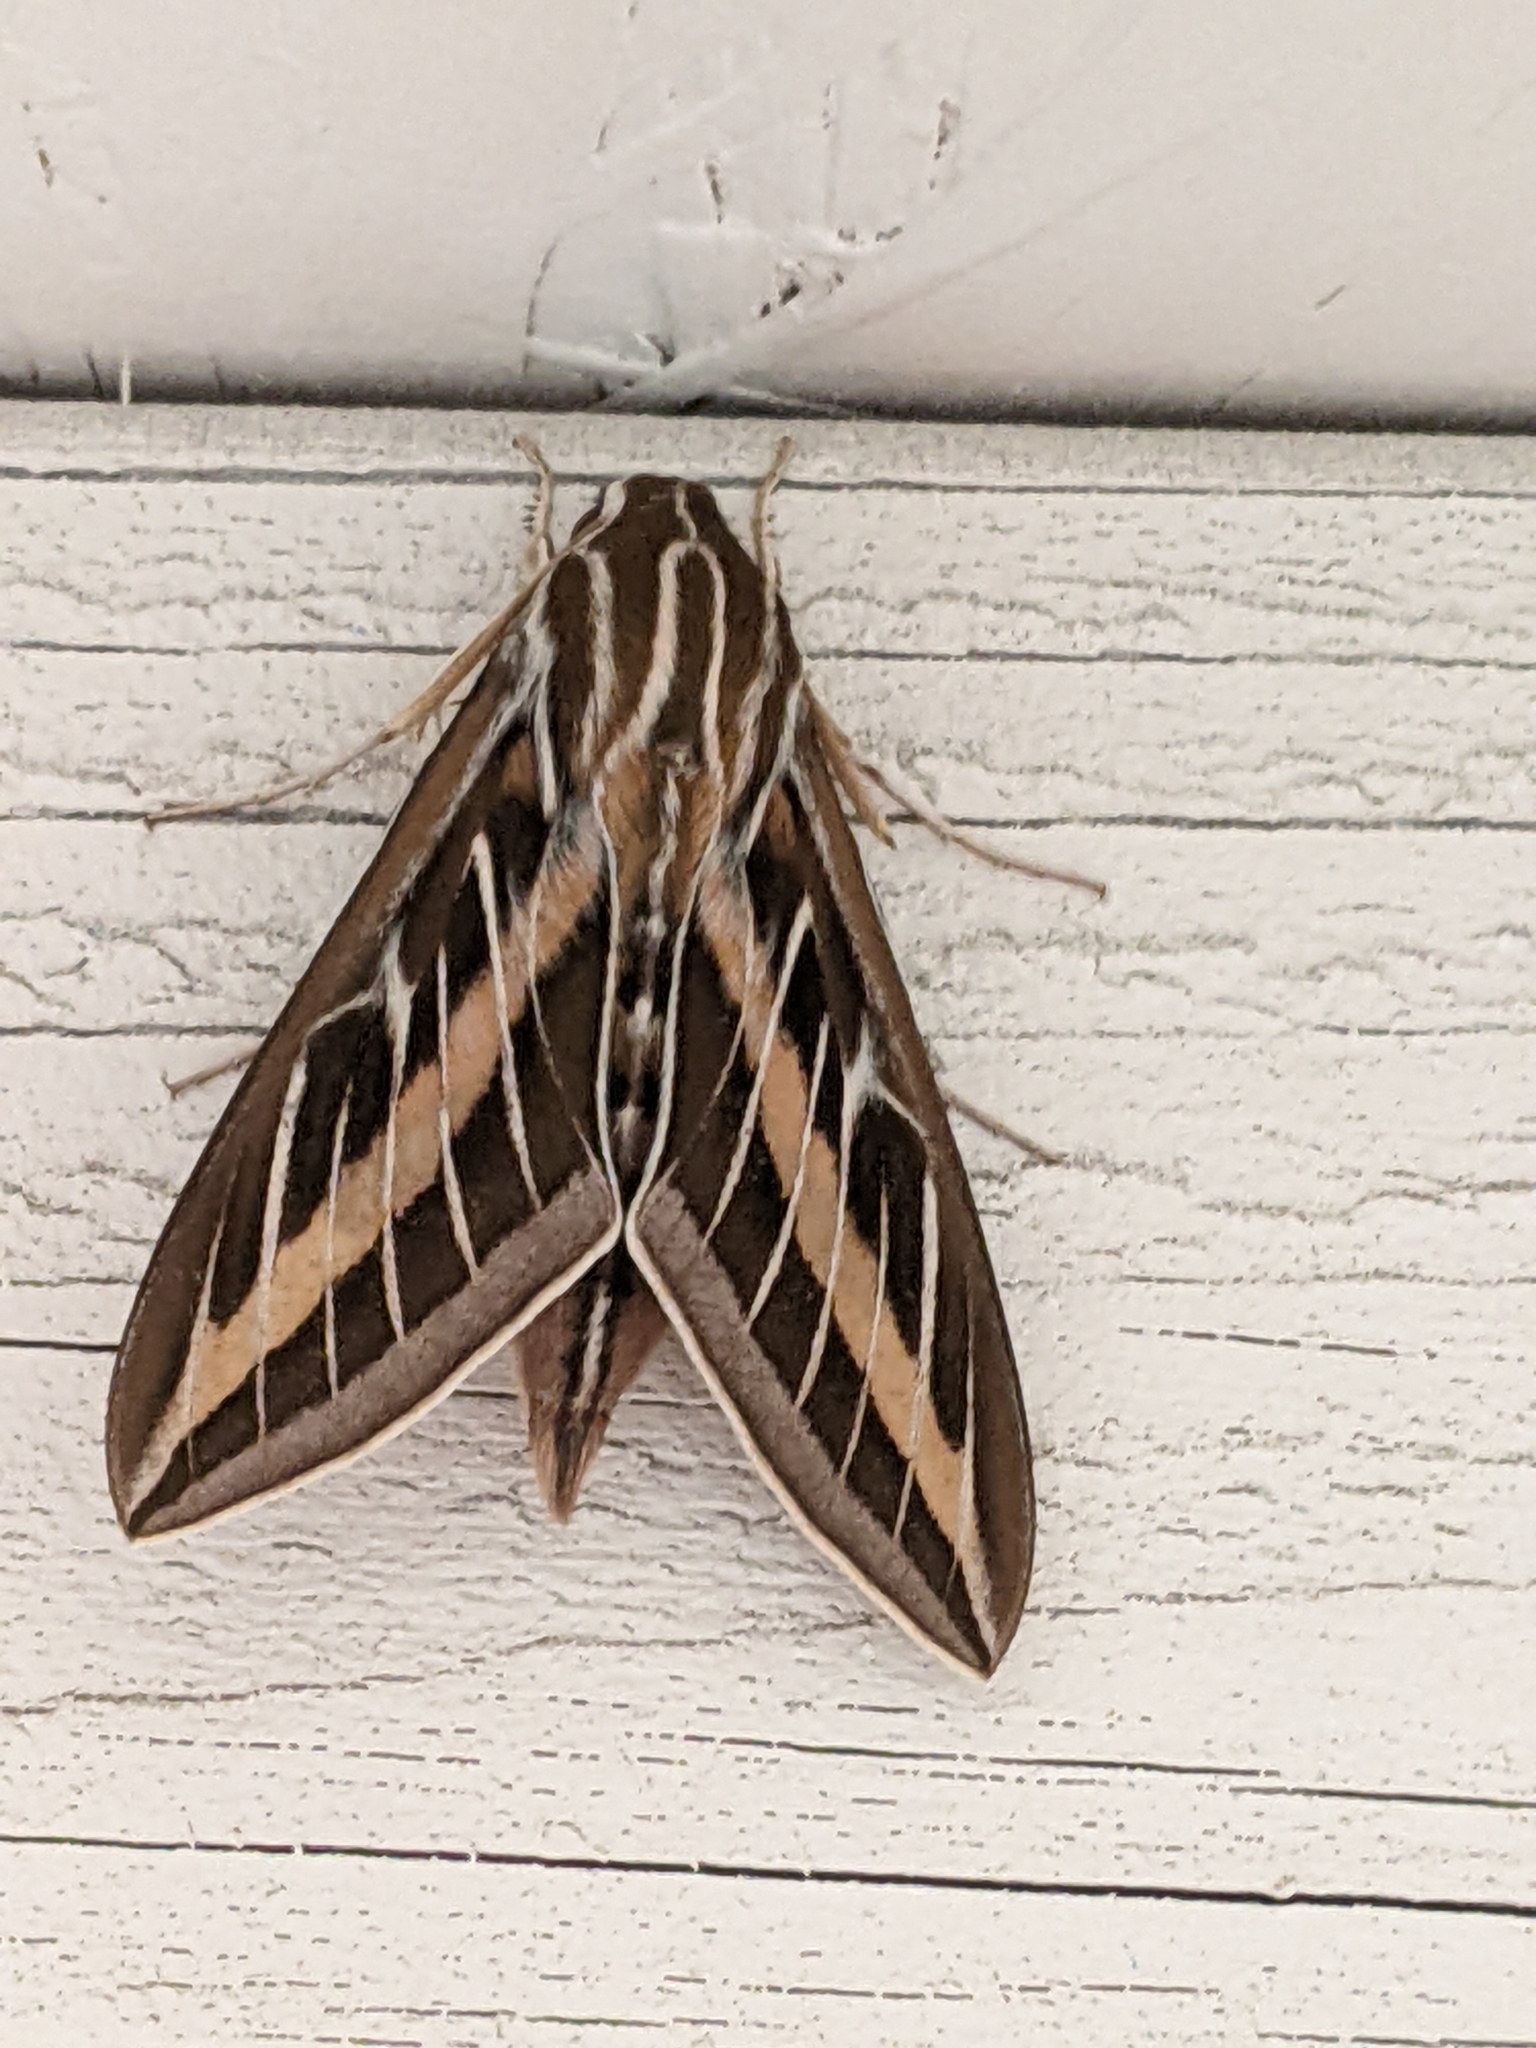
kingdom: Animalia
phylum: Arthropoda
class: Insecta
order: Lepidoptera
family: Sphingidae
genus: Hyles
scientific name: Hyles lineata
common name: White-lined sphinx
